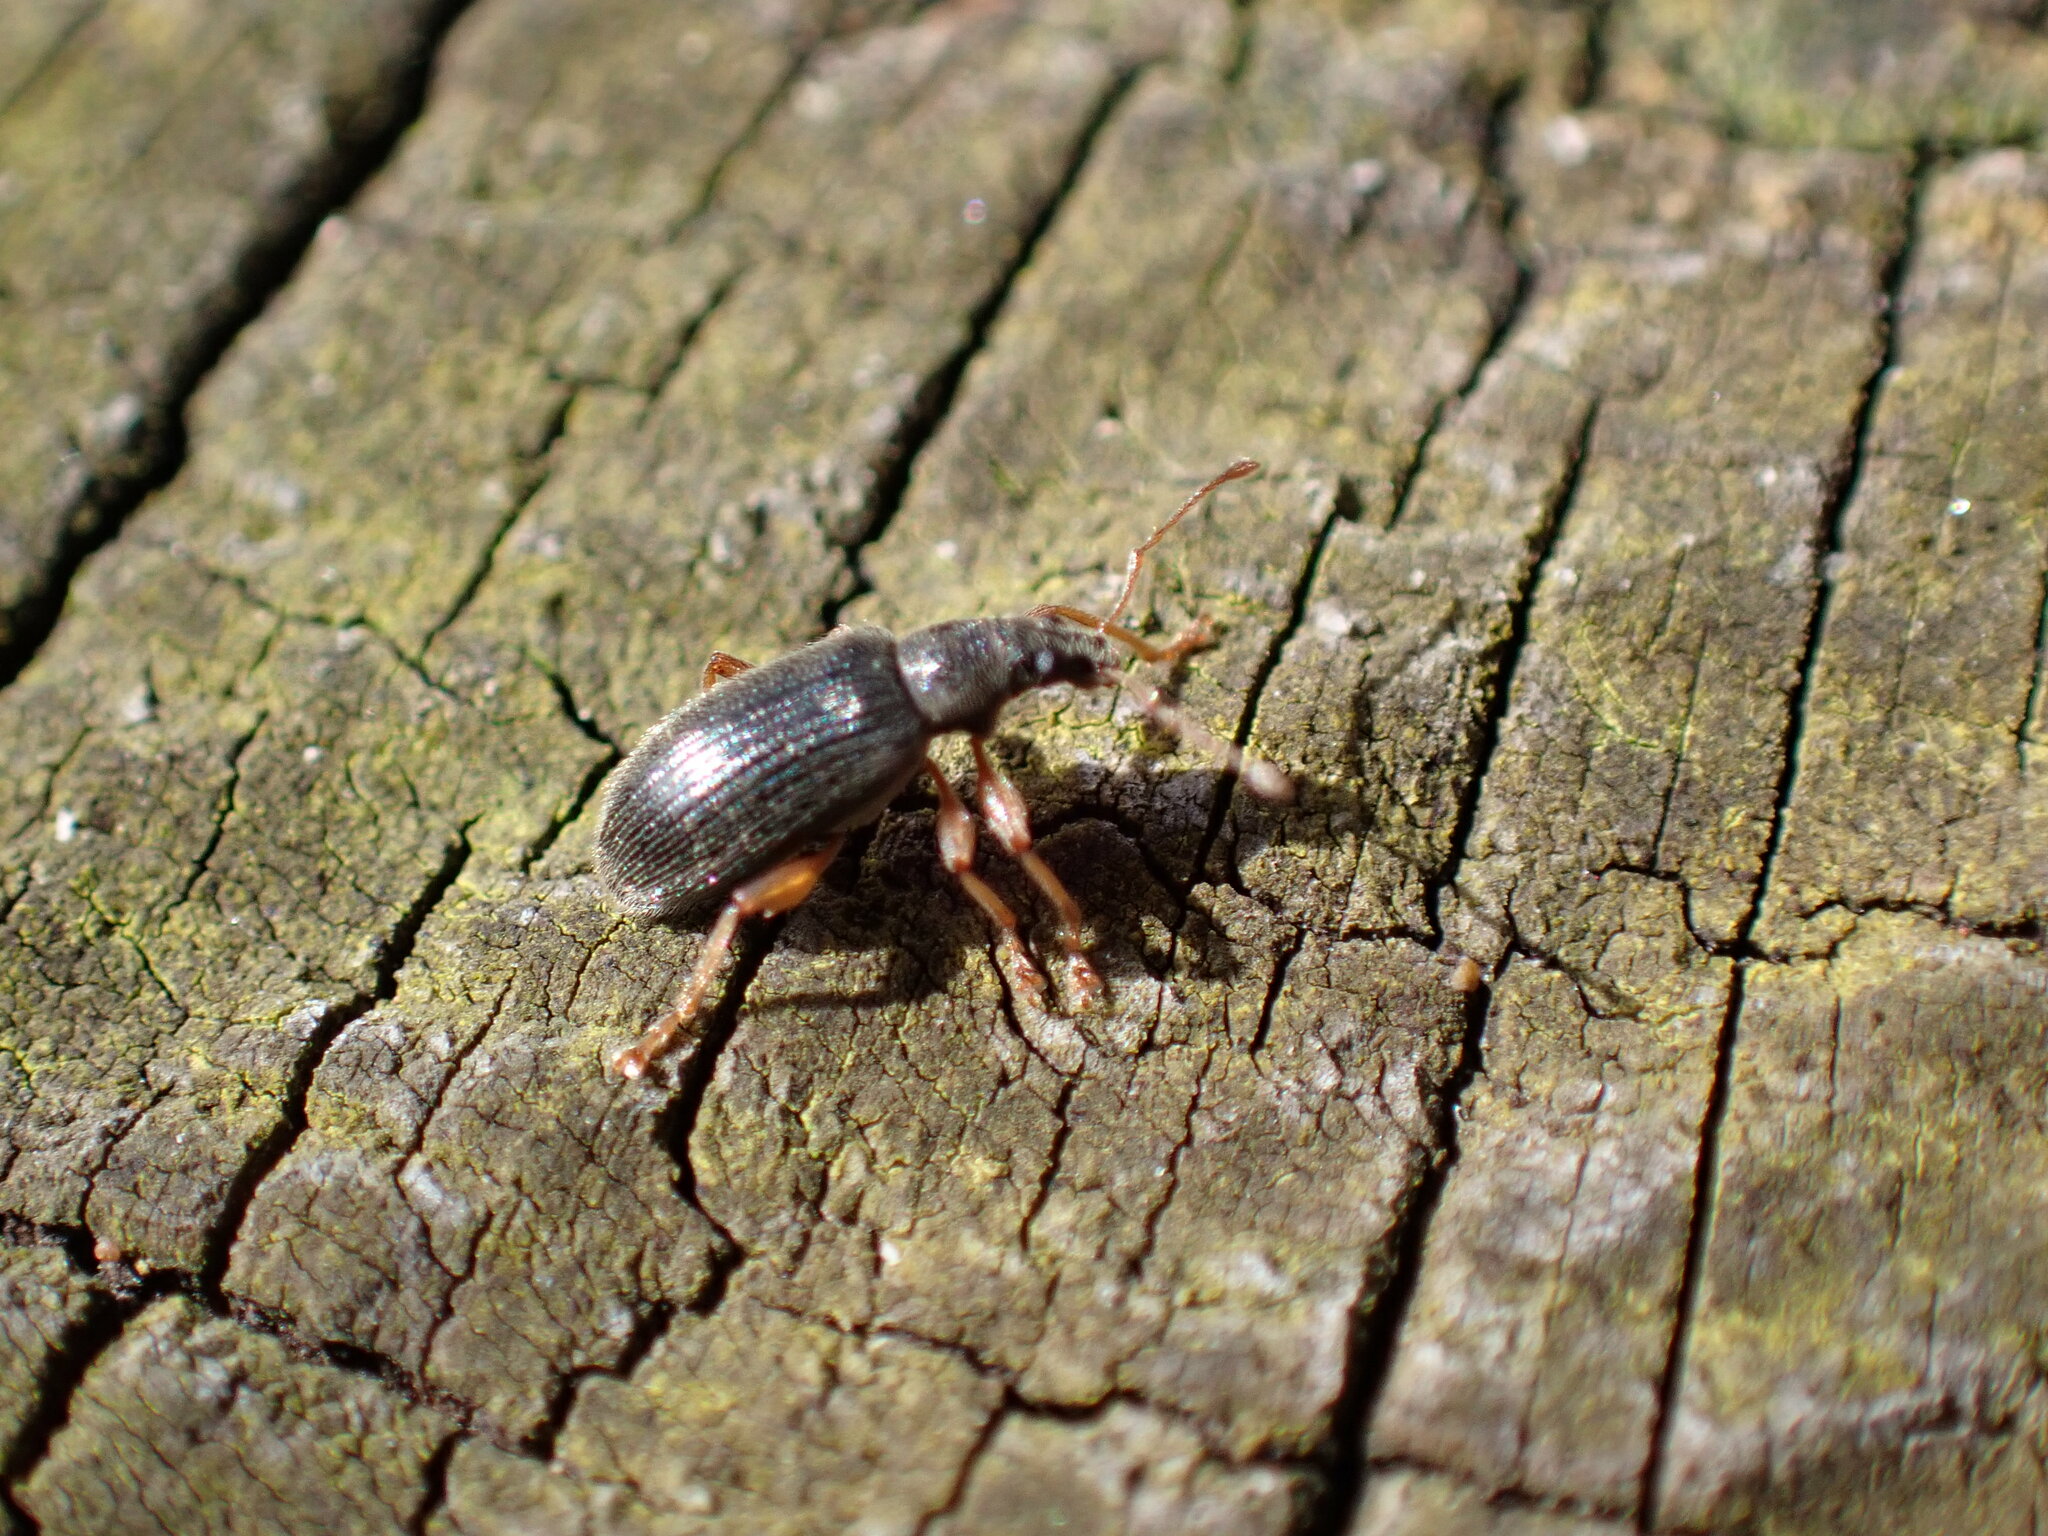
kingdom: Animalia
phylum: Arthropoda
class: Insecta
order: Coleoptera
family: Curculionidae
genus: Phyllobius
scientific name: Phyllobius oblongus
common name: Brown leaf weevil
